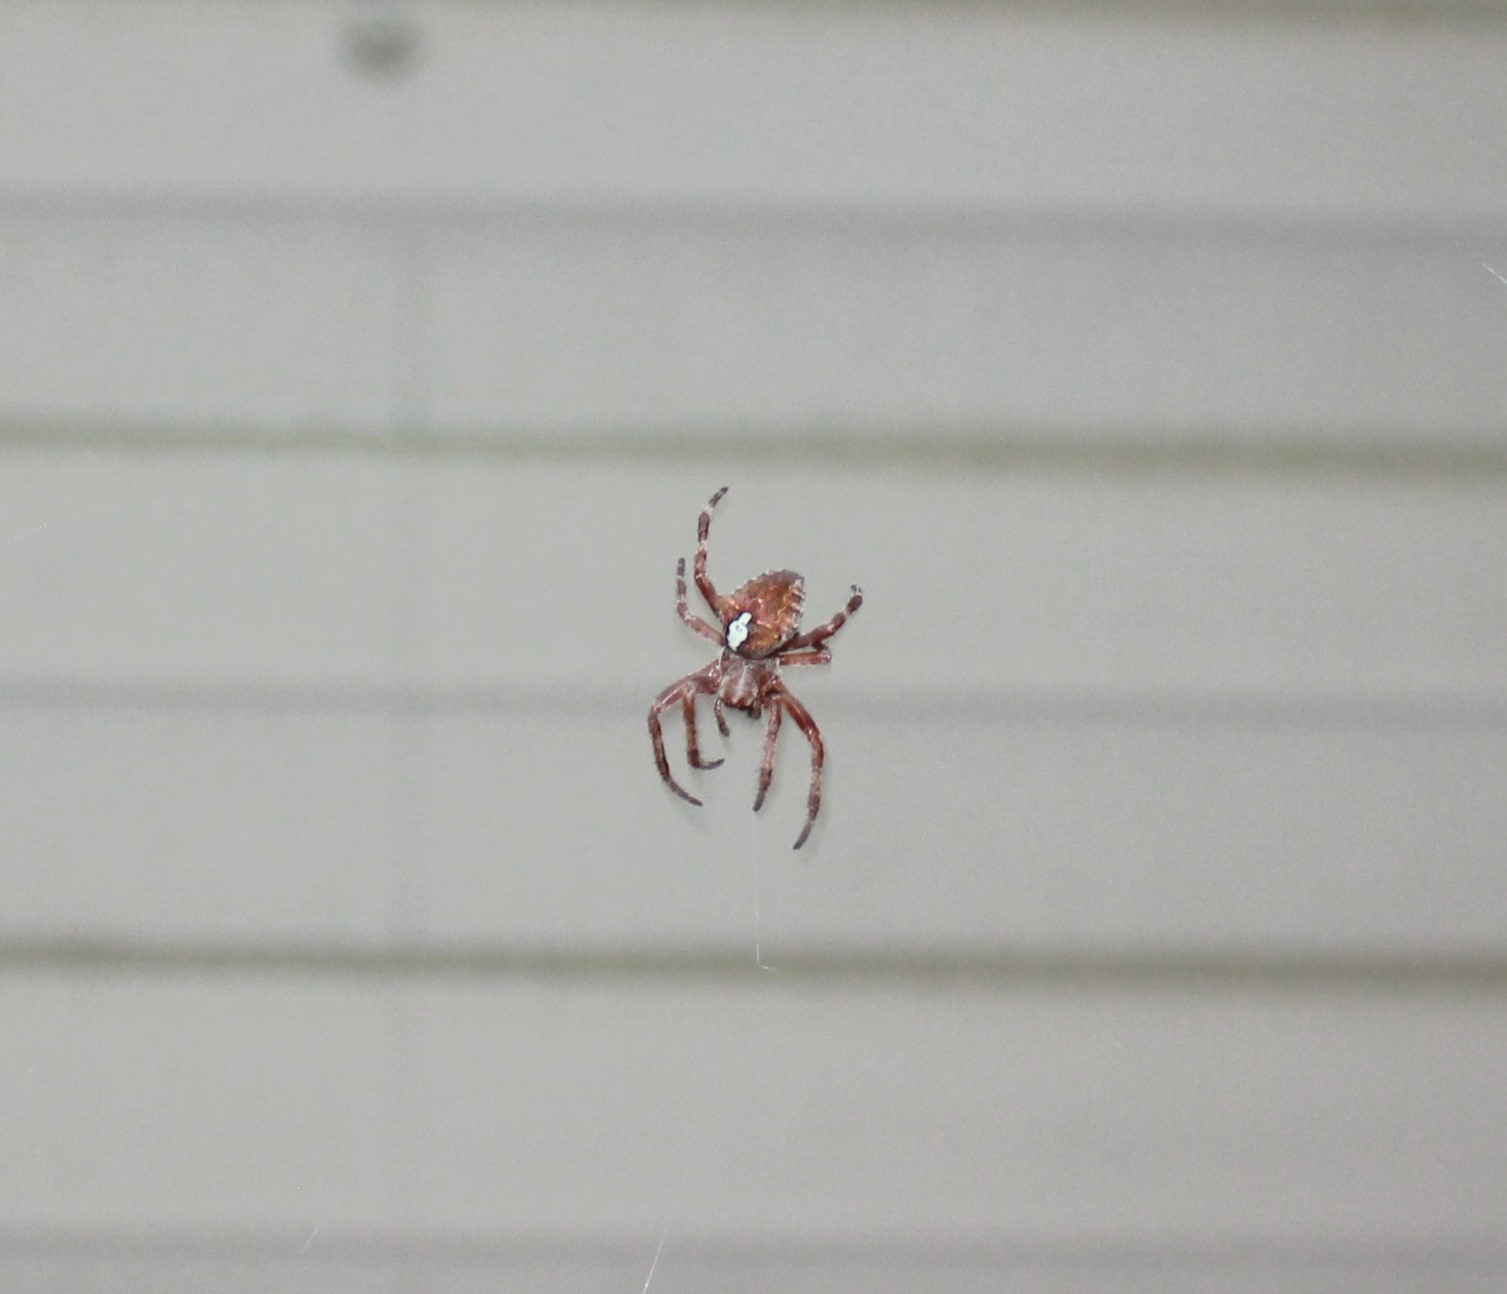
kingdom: Animalia
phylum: Arthropoda
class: Arachnida
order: Araneae
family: Araneidae
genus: Araneus
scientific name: Araneus
